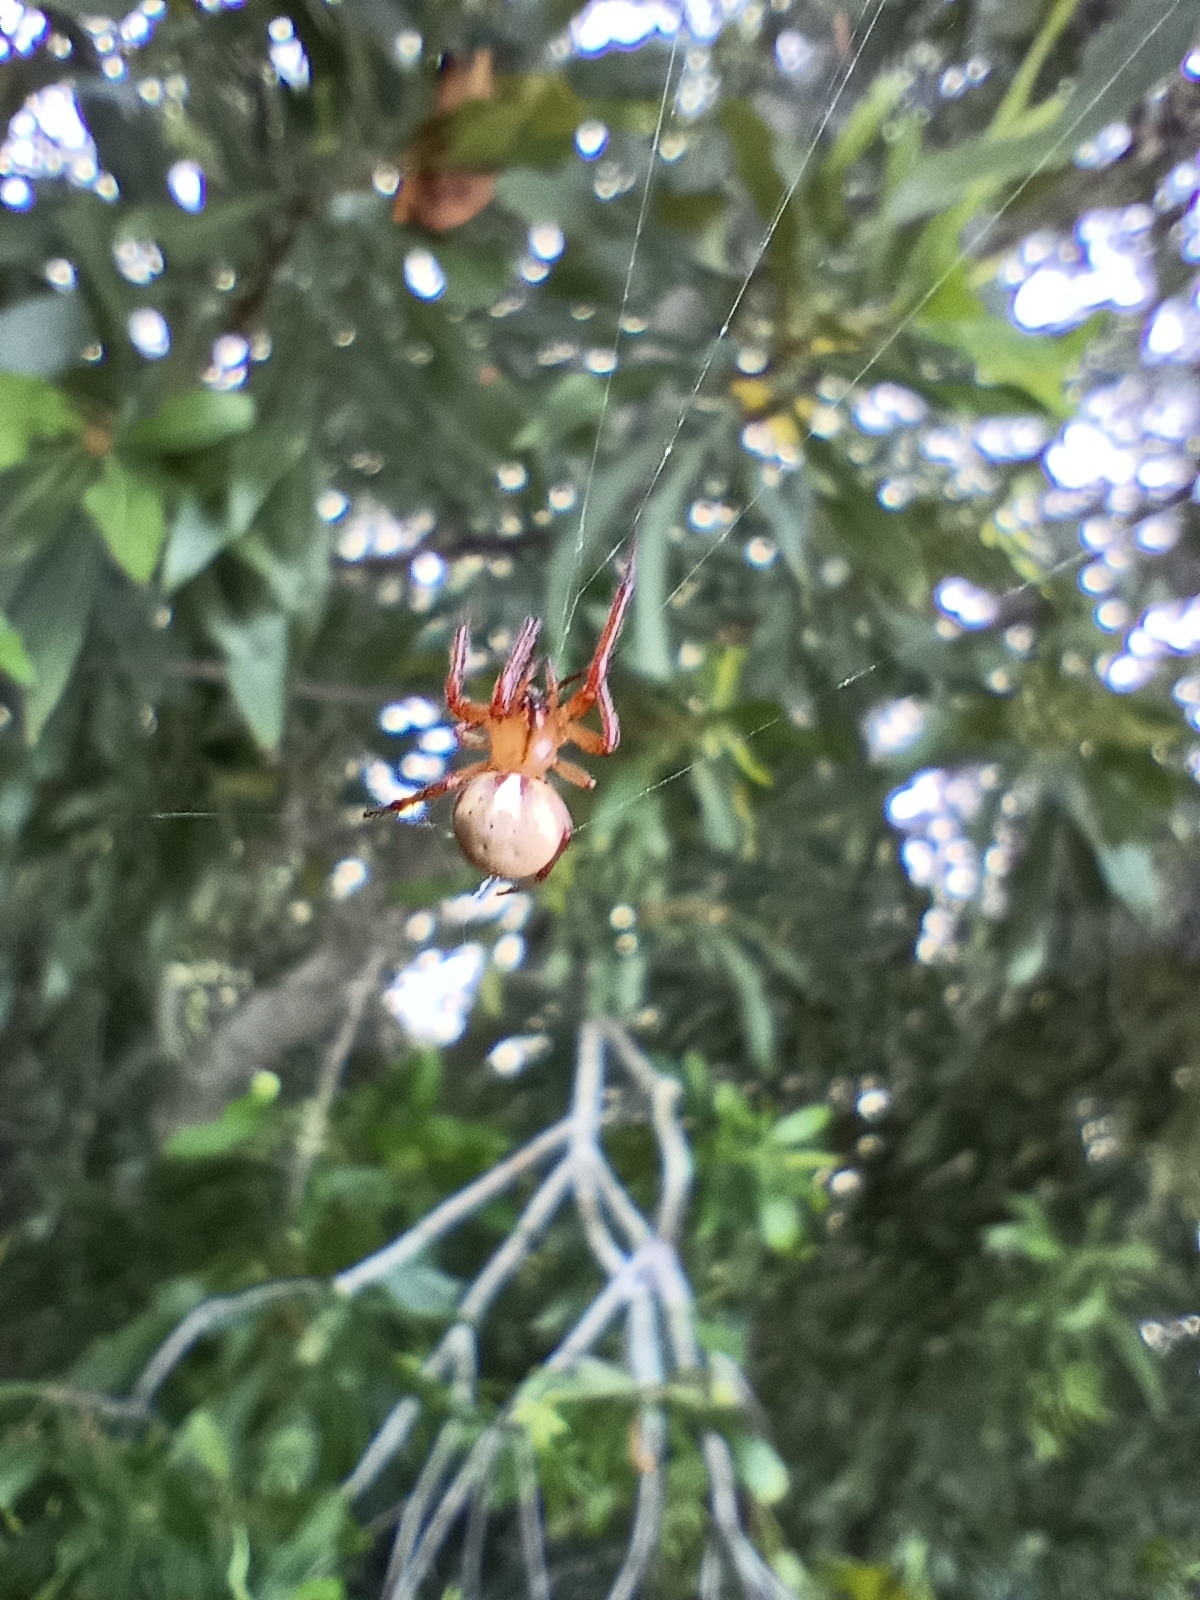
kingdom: Animalia
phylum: Arthropoda
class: Arachnida
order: Araneae
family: Araneidae
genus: Metazygia
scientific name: Metazygia zilloides
